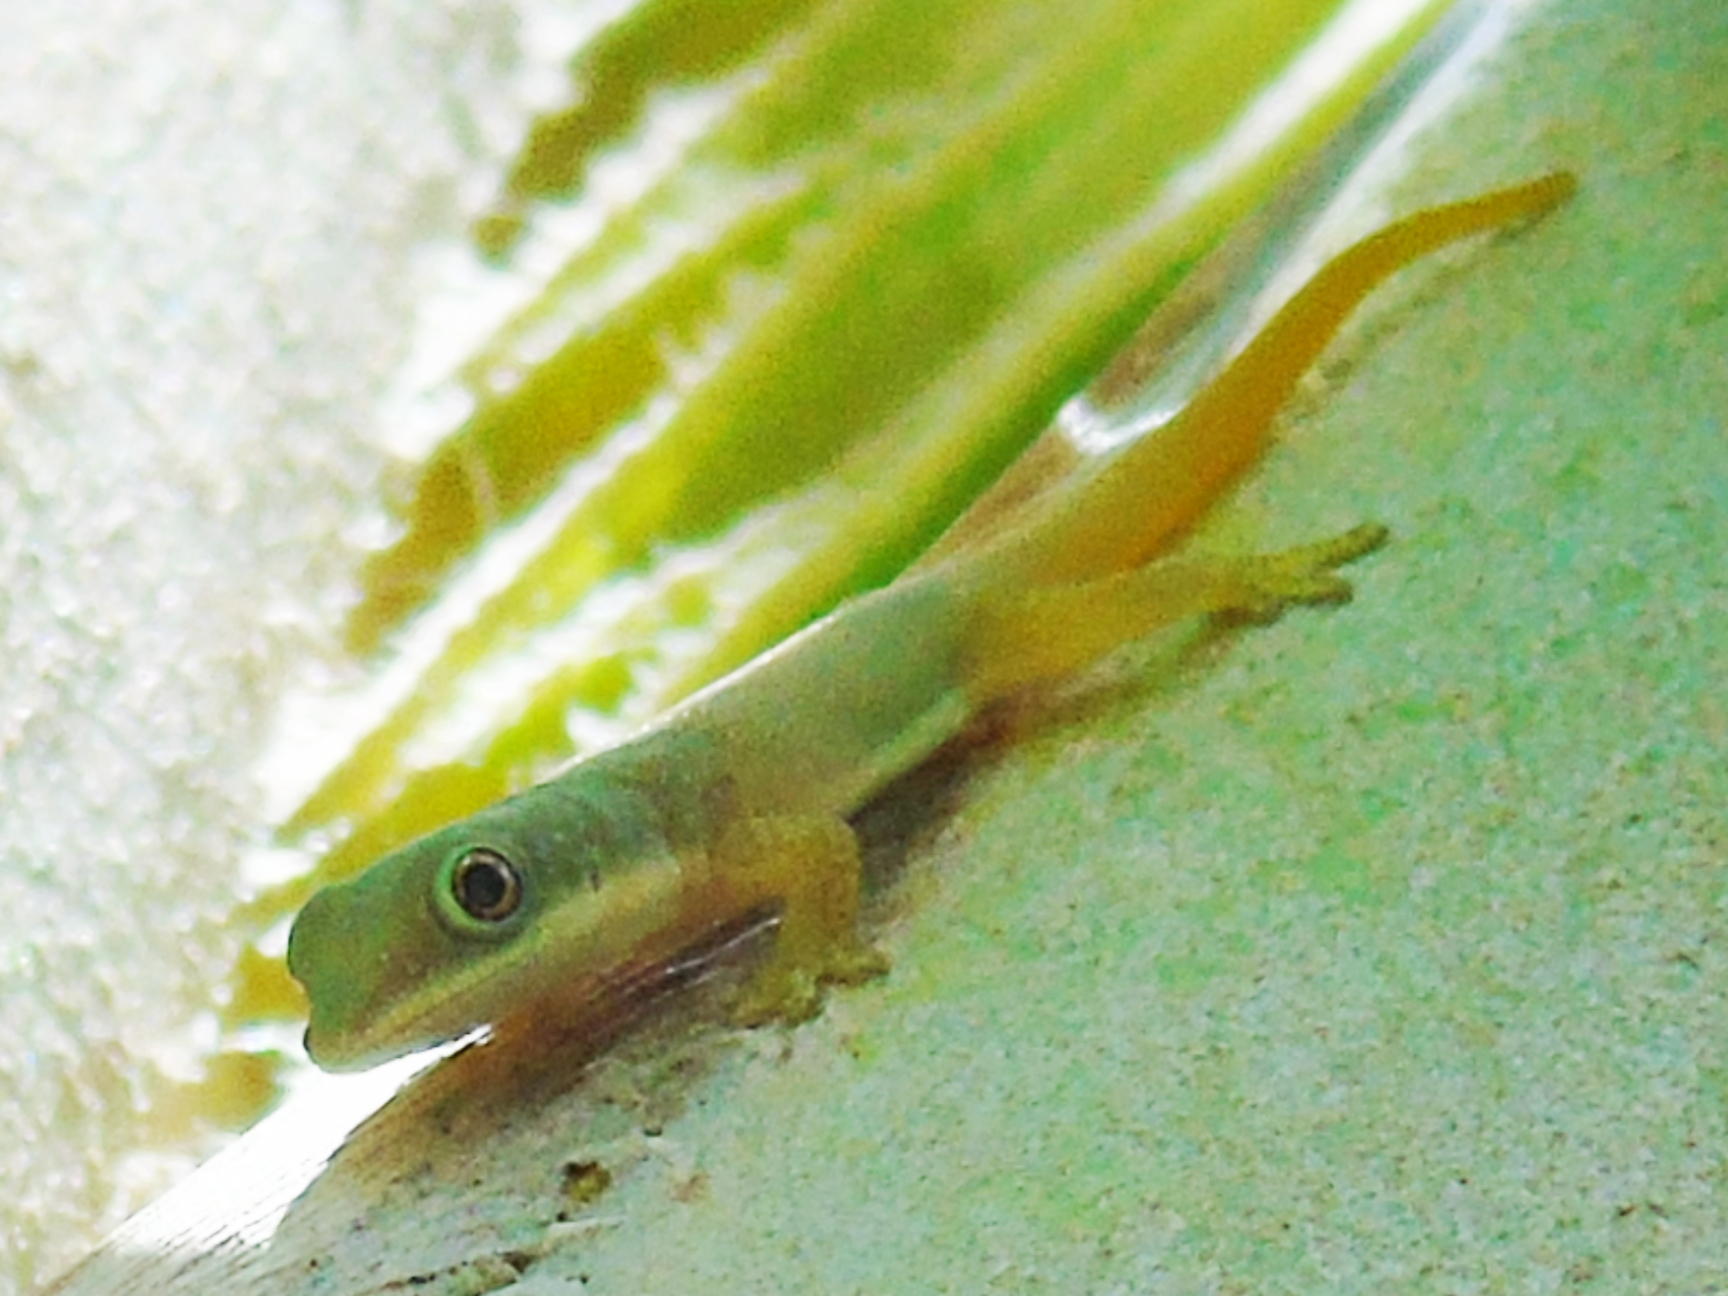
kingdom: Animalia
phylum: Chordata
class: Squamata
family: Gekkonidae
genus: Phelsuma
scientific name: Phelsuma dubia
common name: Zanzibar day gecko
